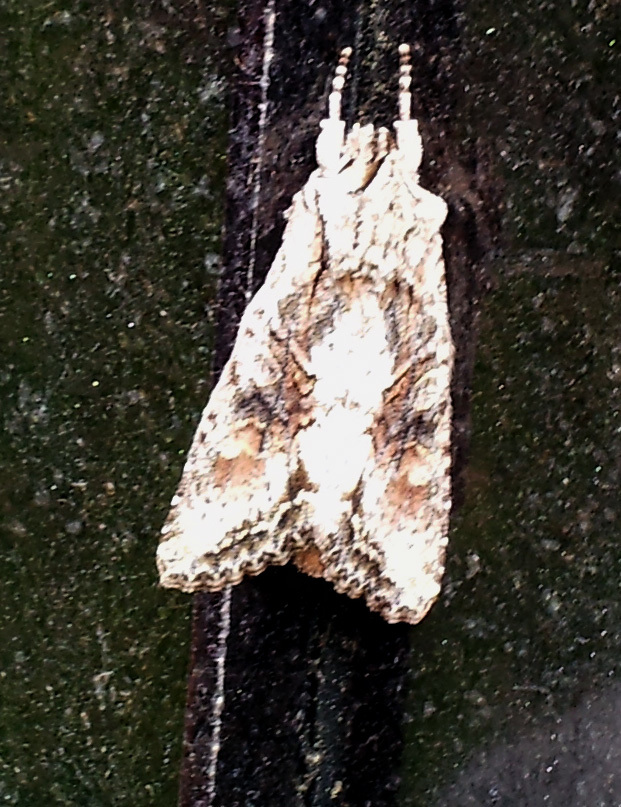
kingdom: Animalia
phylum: Arthropoda
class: Insecta
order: Lepidoptera
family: Noctuidae
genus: Ichneutica
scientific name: Ichneutica mutans
